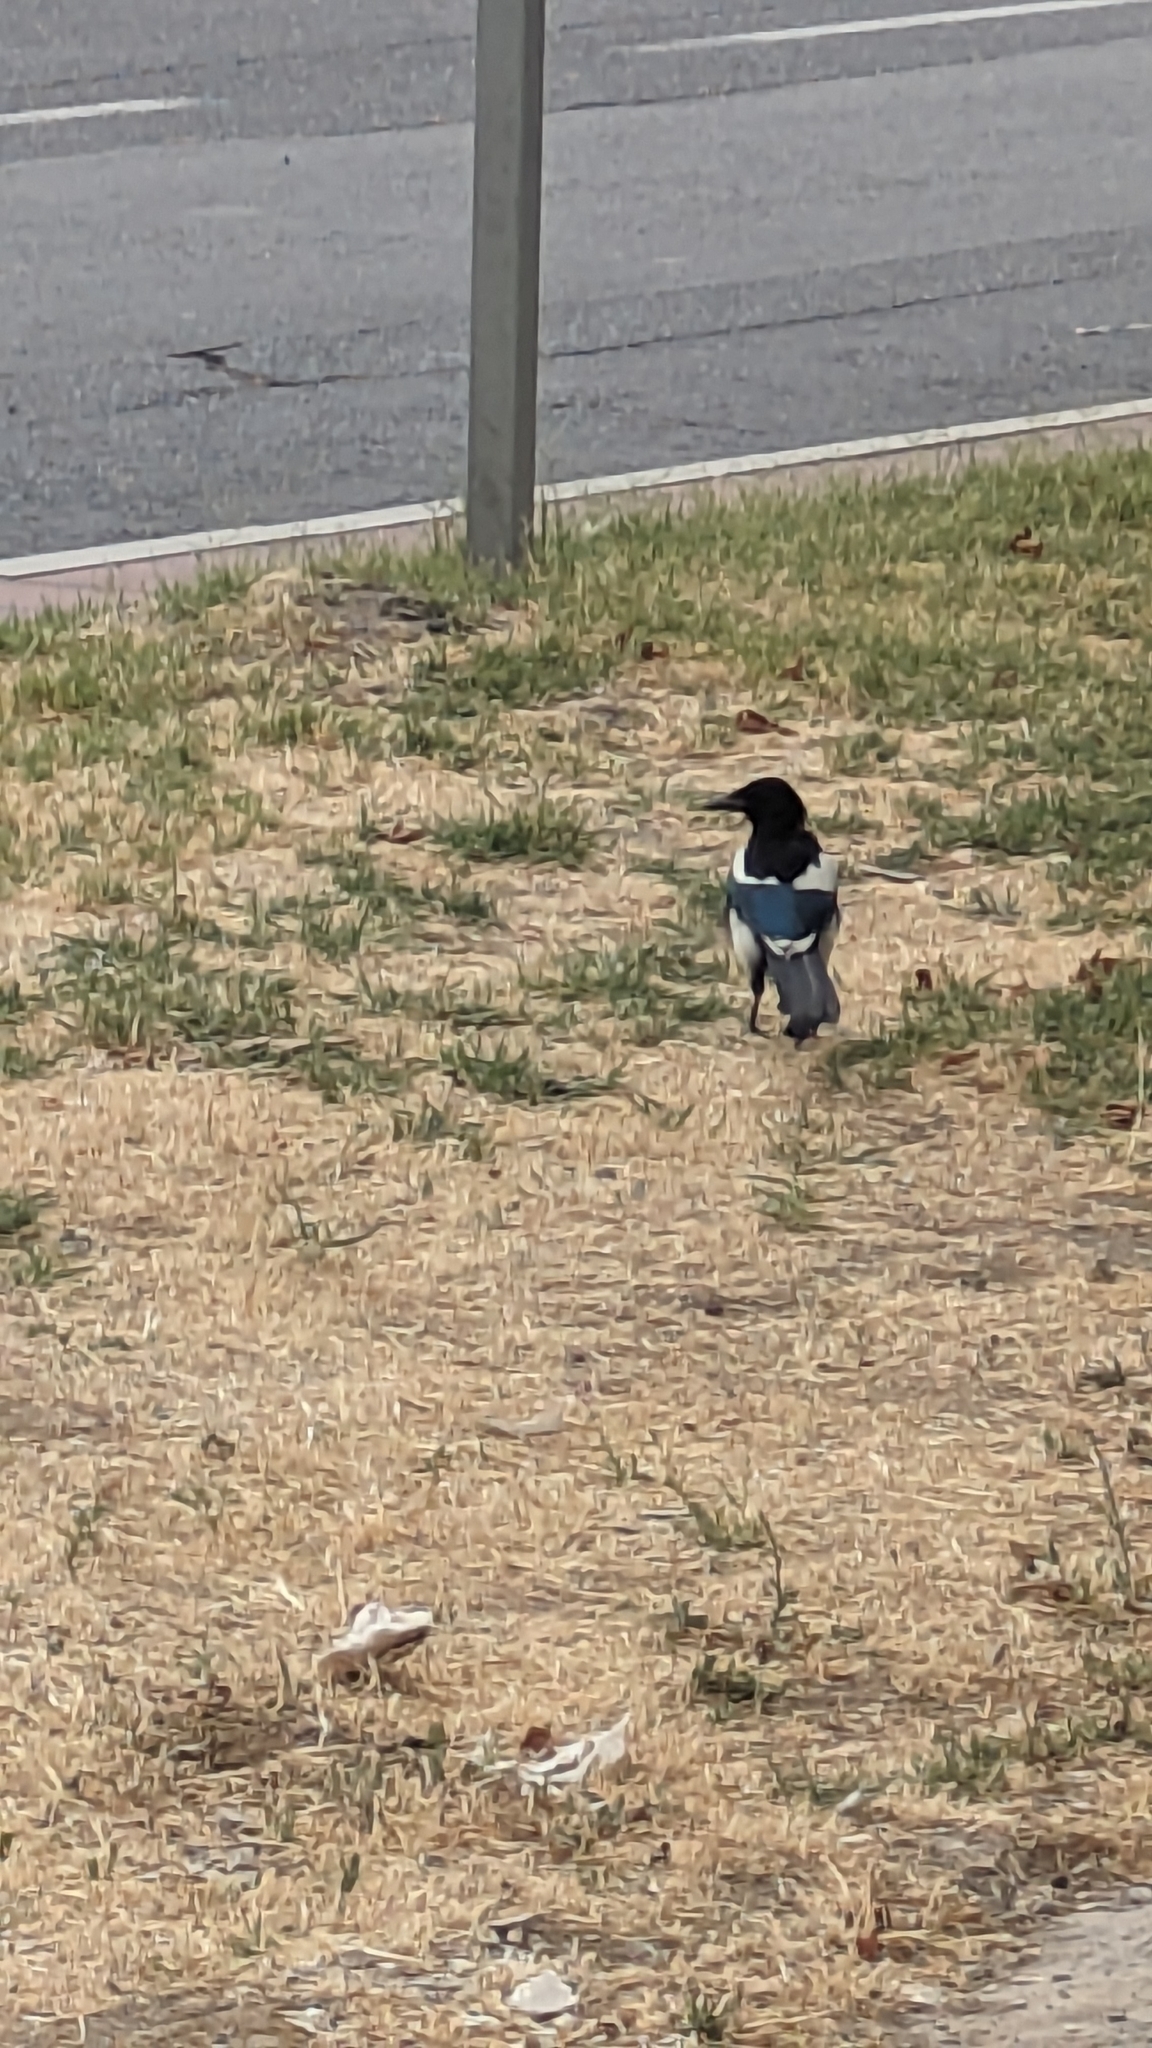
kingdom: Animalia
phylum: Chordata
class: Aves
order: Passeriformes
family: Corvidae
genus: Pica
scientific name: Pica pica
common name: Eurasian magpie
